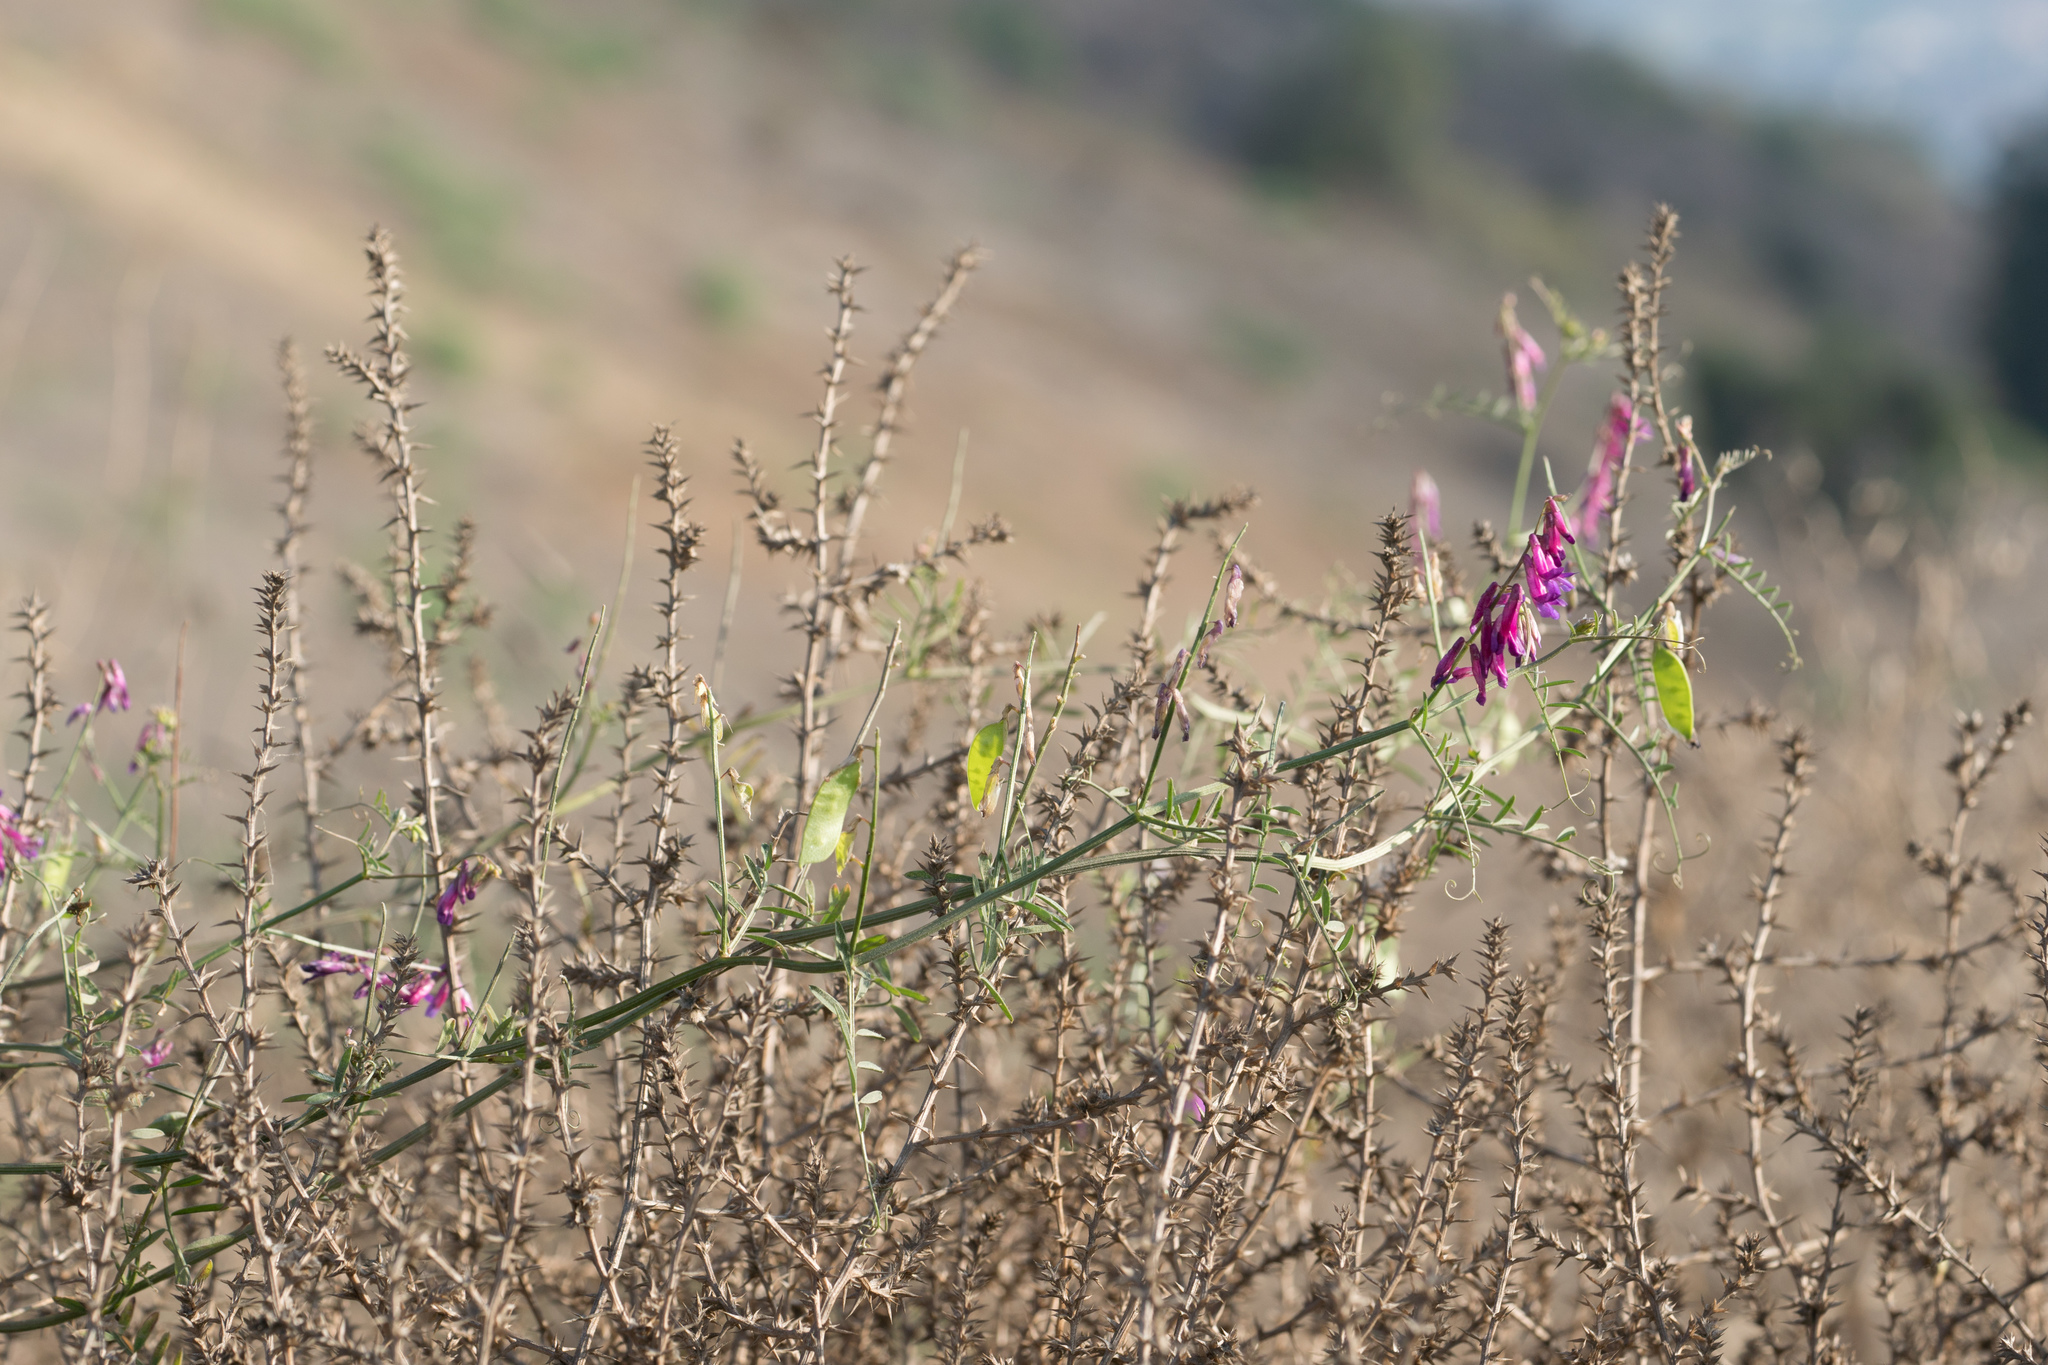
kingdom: Plantae
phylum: Tracheophyta
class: Magnoliopsida
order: Fabales
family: Fabaceae
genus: Vicia
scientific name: Vicia villosa
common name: Fodder vetch
